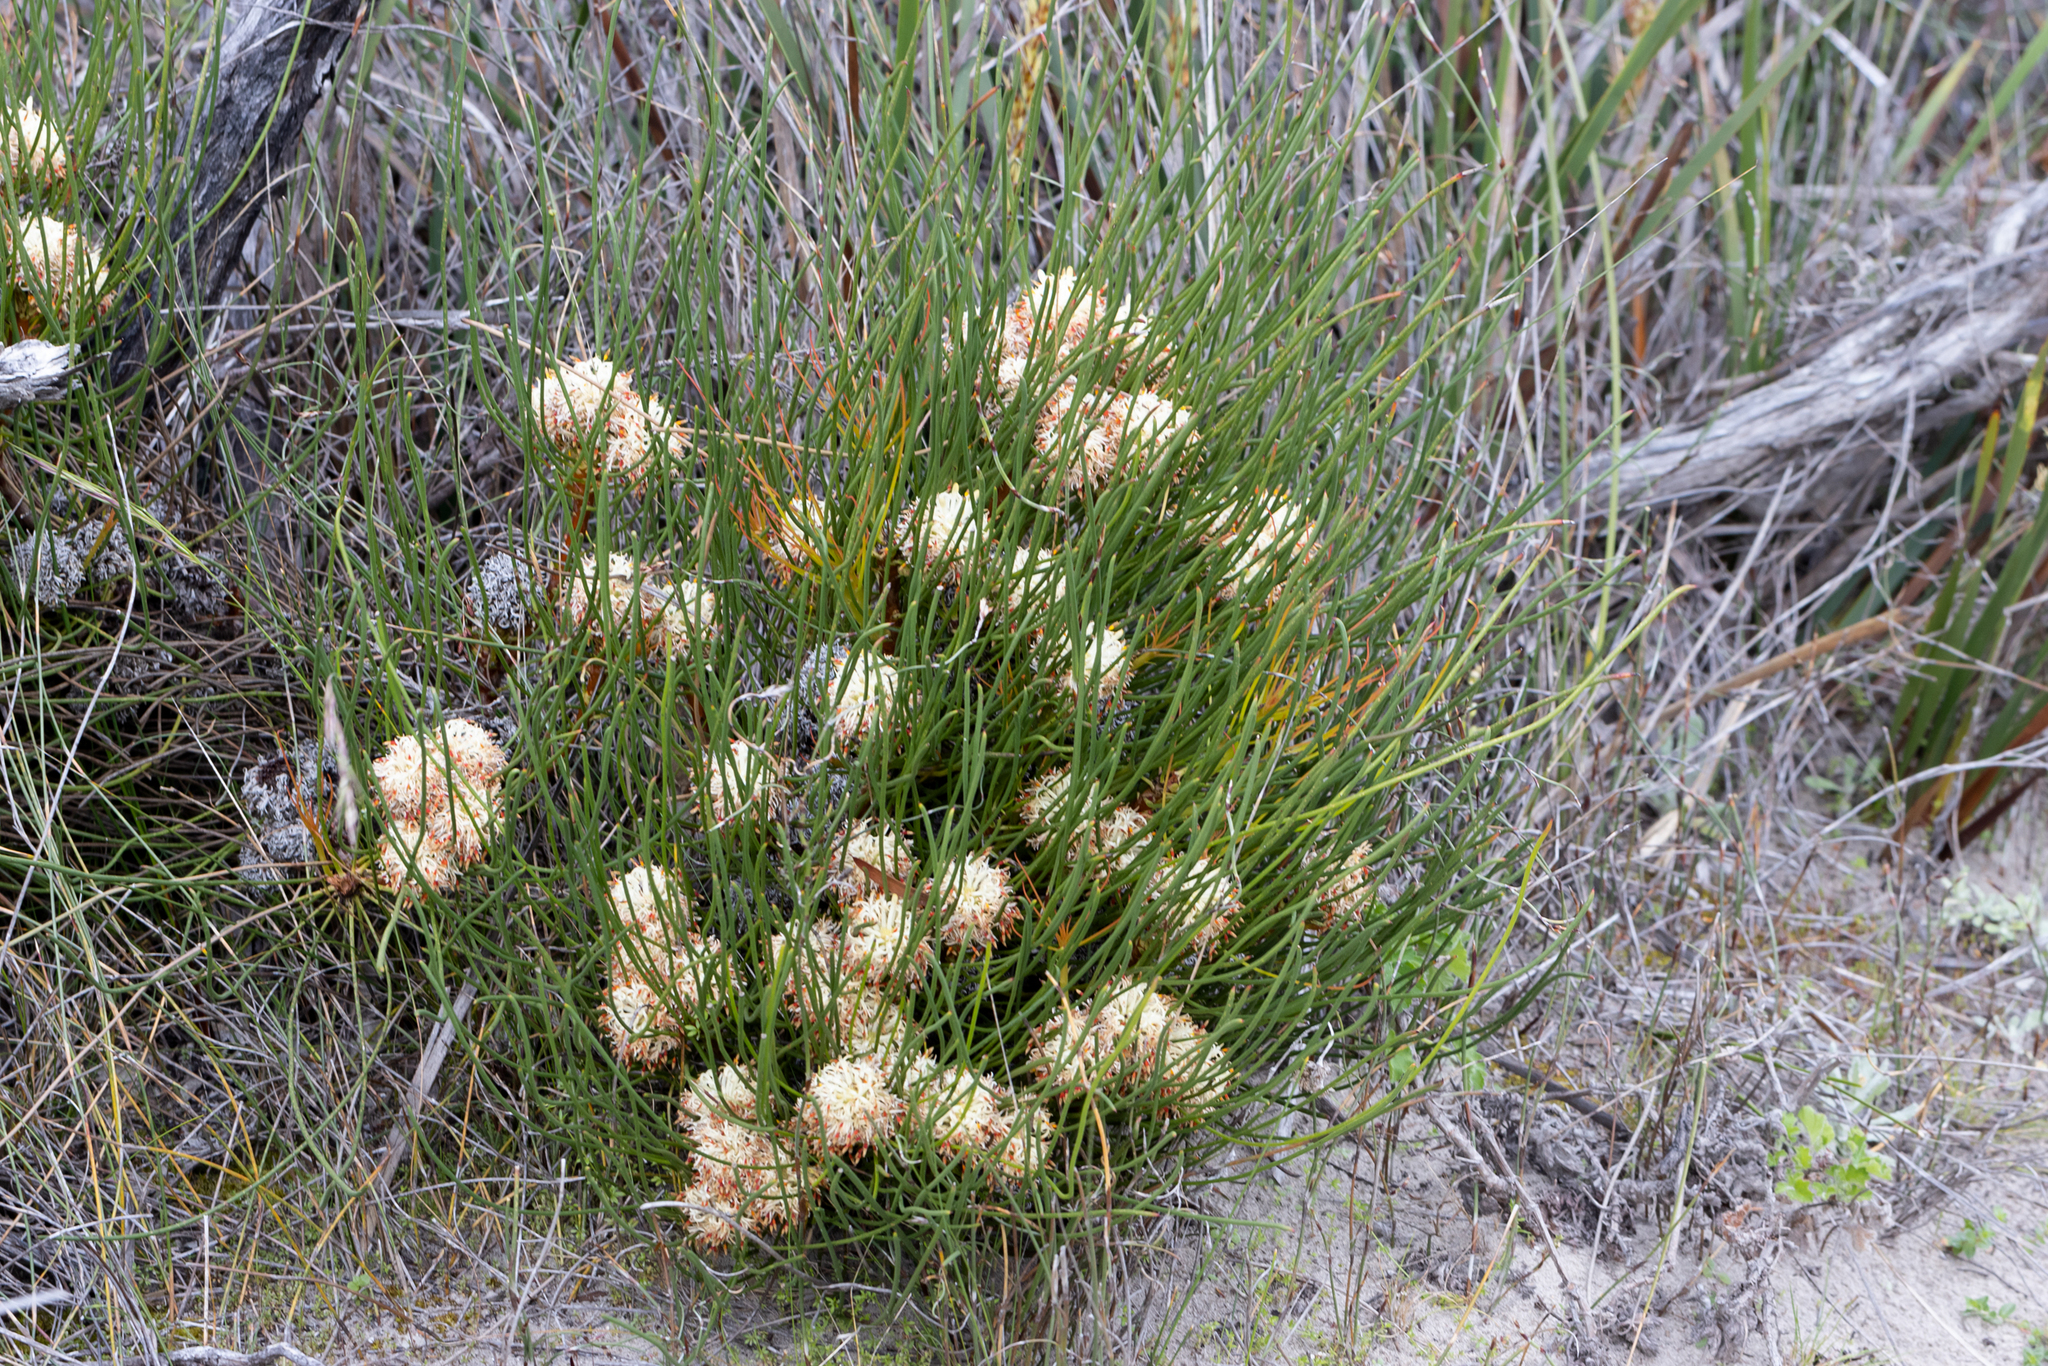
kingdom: Plantae
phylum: Tracheophyta
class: Magnoliopsida
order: Proteales
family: Proteaceae
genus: Petrophile
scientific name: Petrophile longifolia
